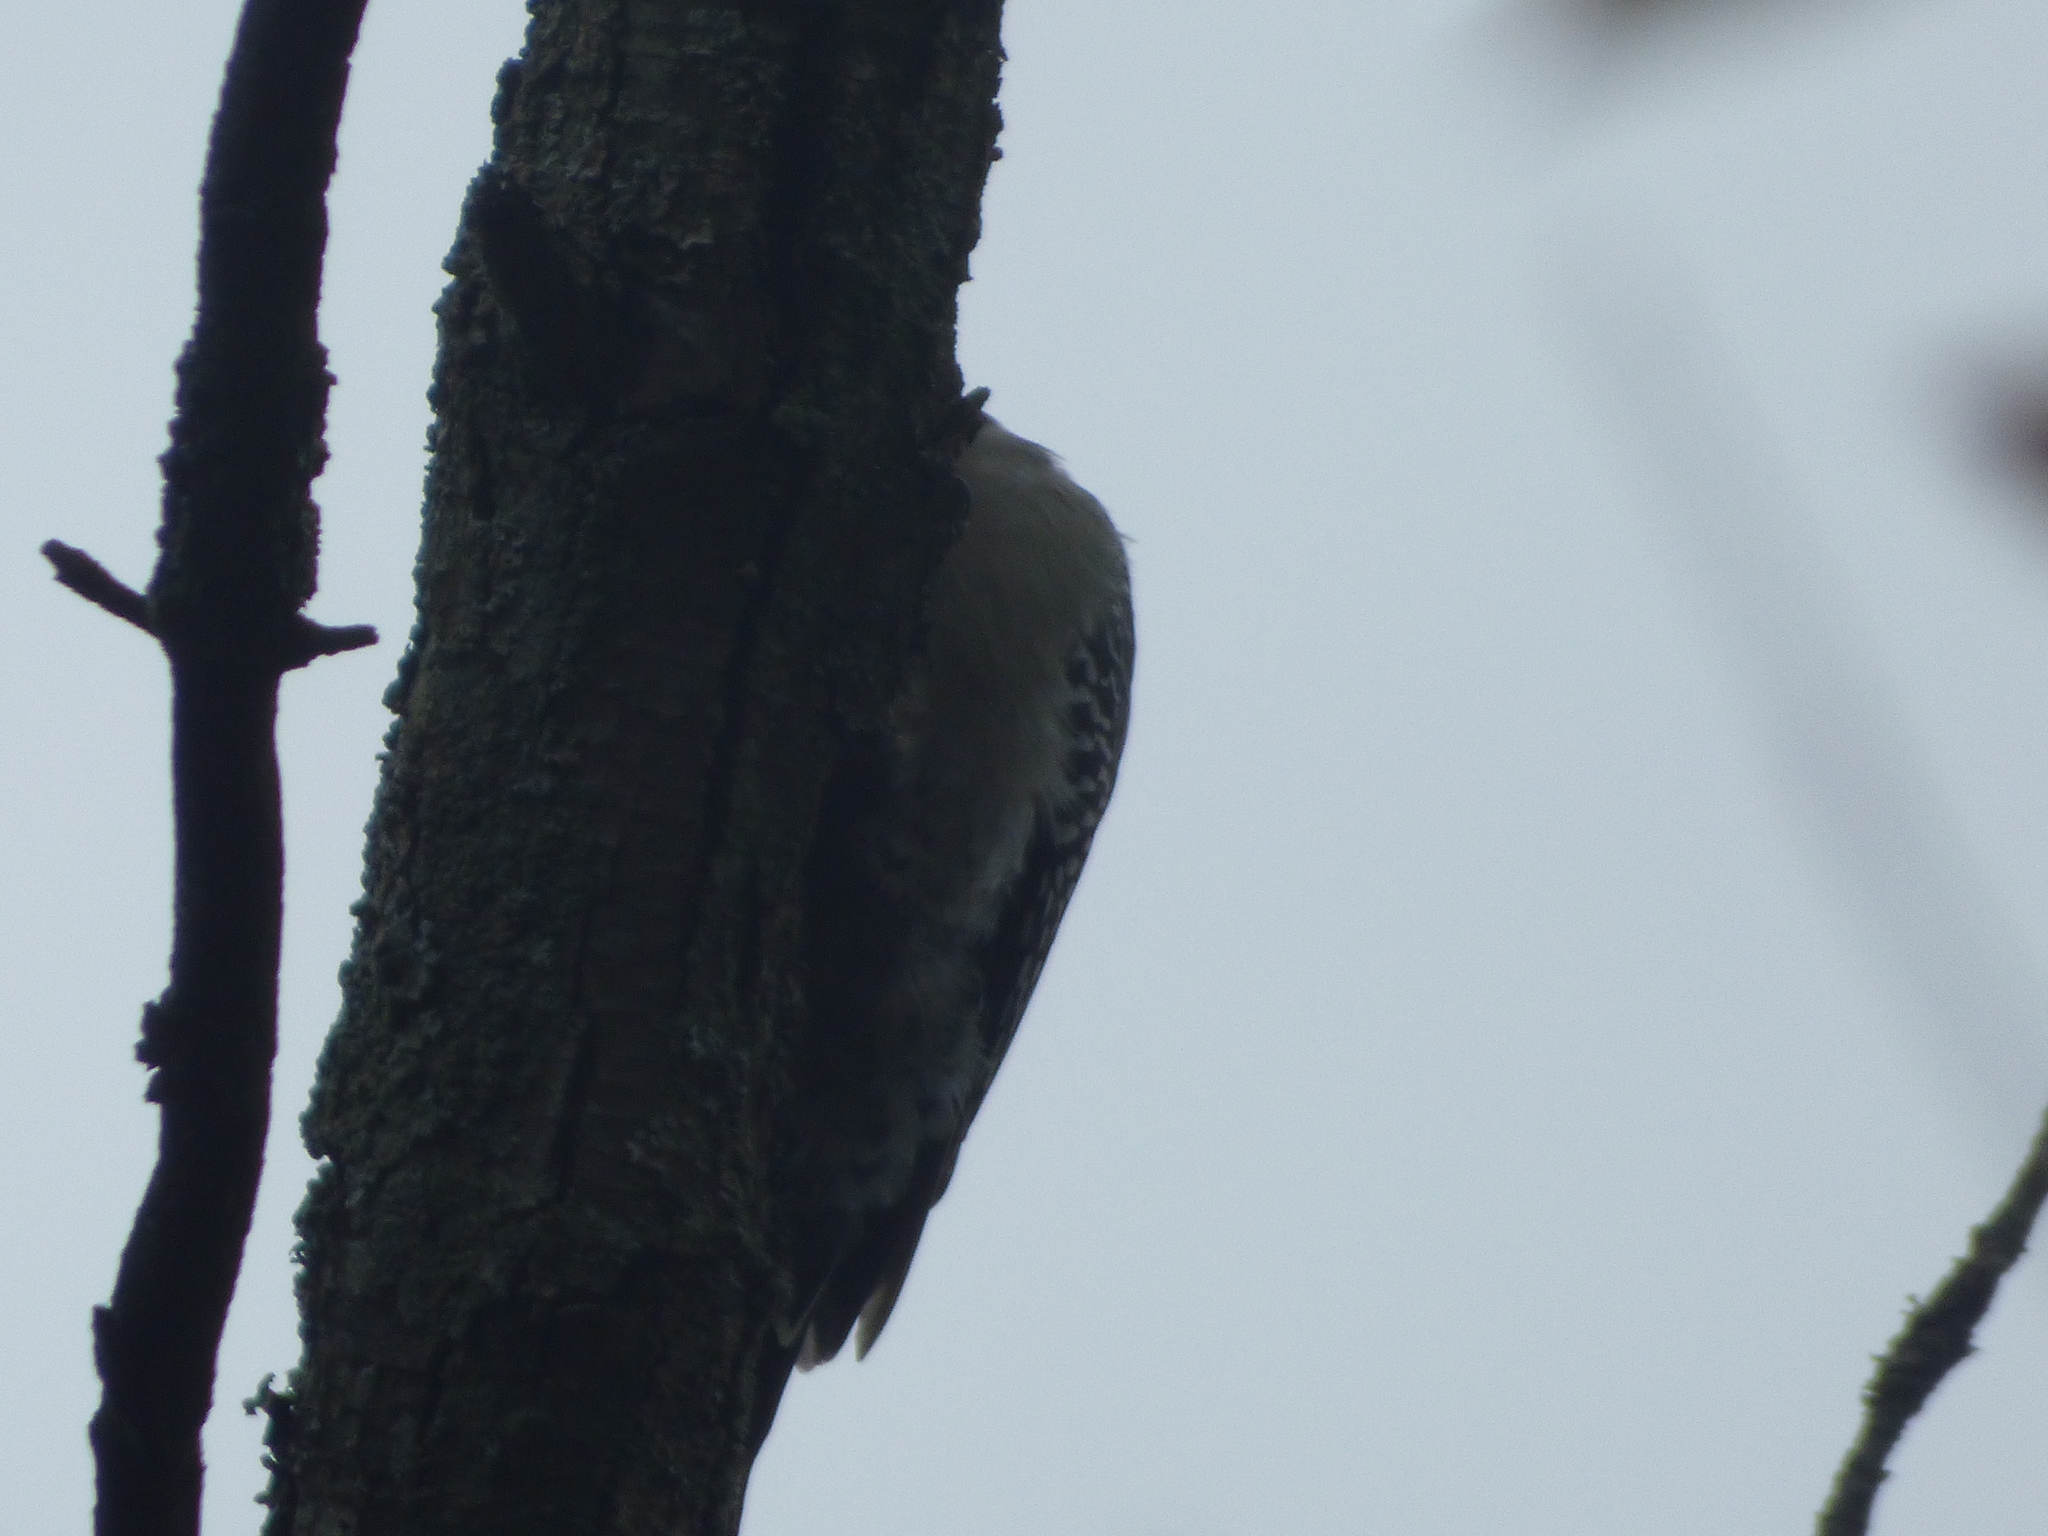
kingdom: Animalia
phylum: Chordata
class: Aves
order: Piciformes
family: Picidae
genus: Melanerpes
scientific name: Melanerpes carolinus
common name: Red-bellied woodpecker
